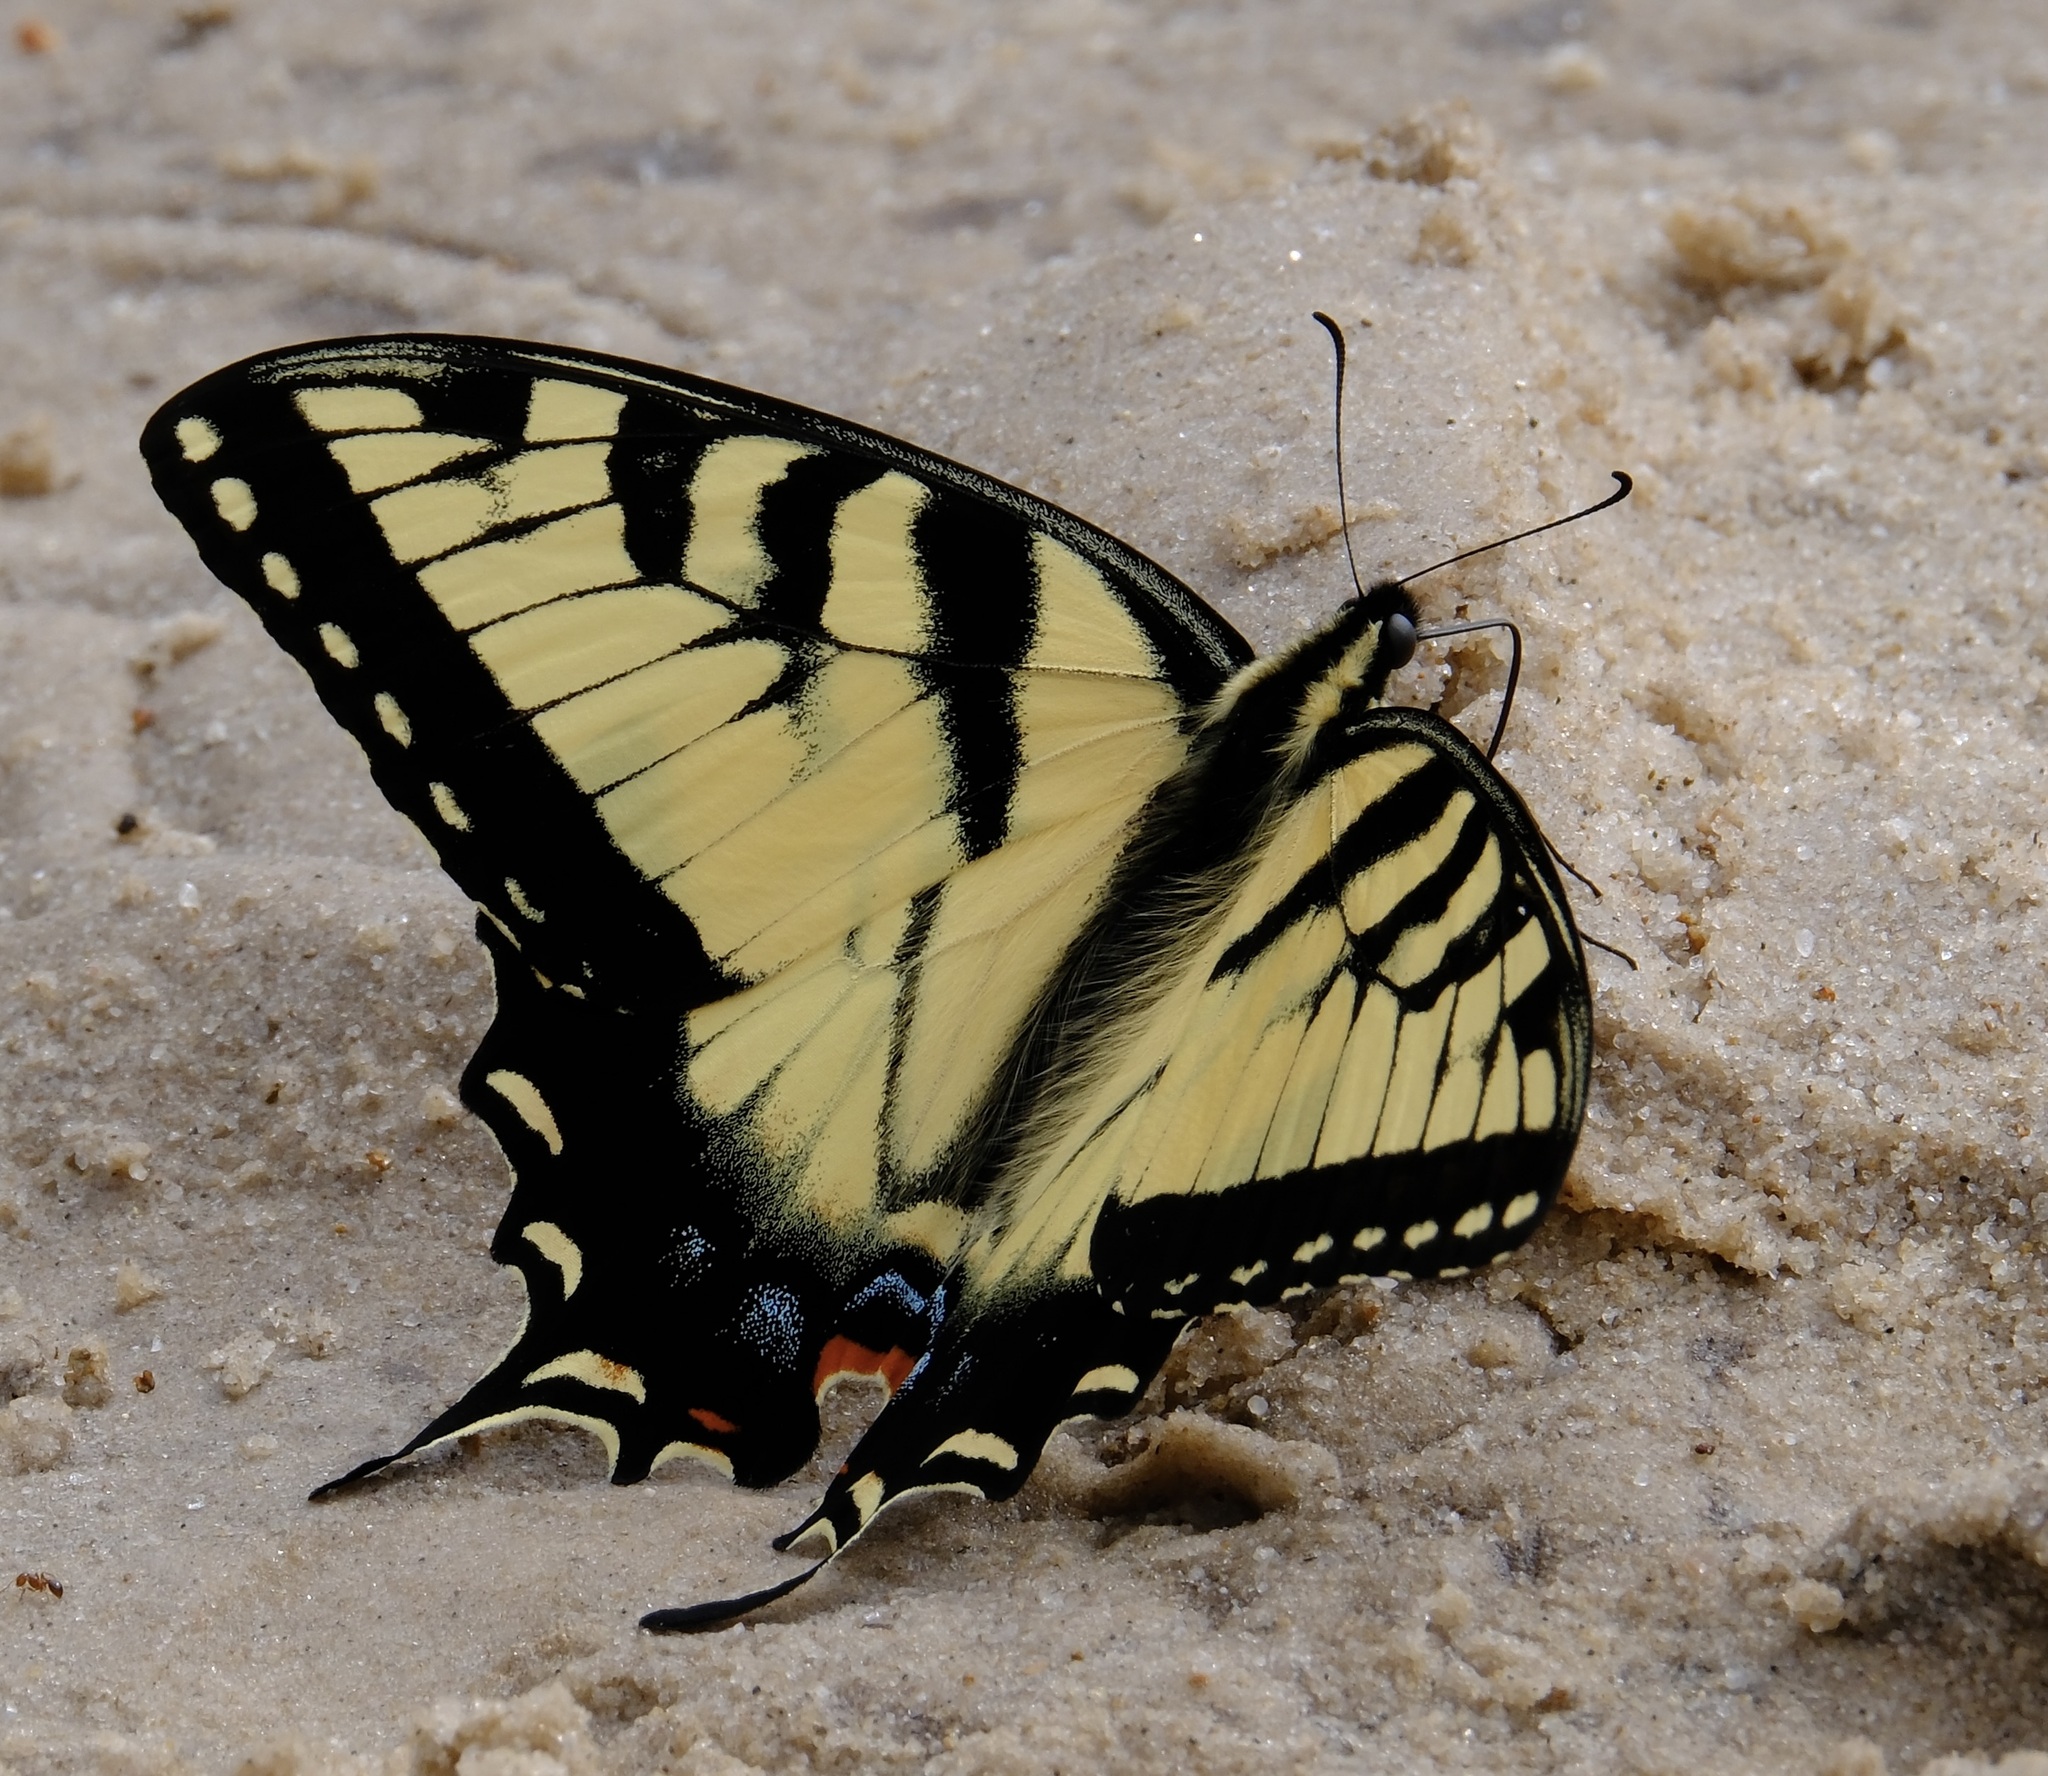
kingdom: Animalia
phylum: Arthropoda
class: Insecta
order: Lepidoptera
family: Papilionidae
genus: Papilio
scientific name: Papilio glaucus
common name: Tiger swallowtail
